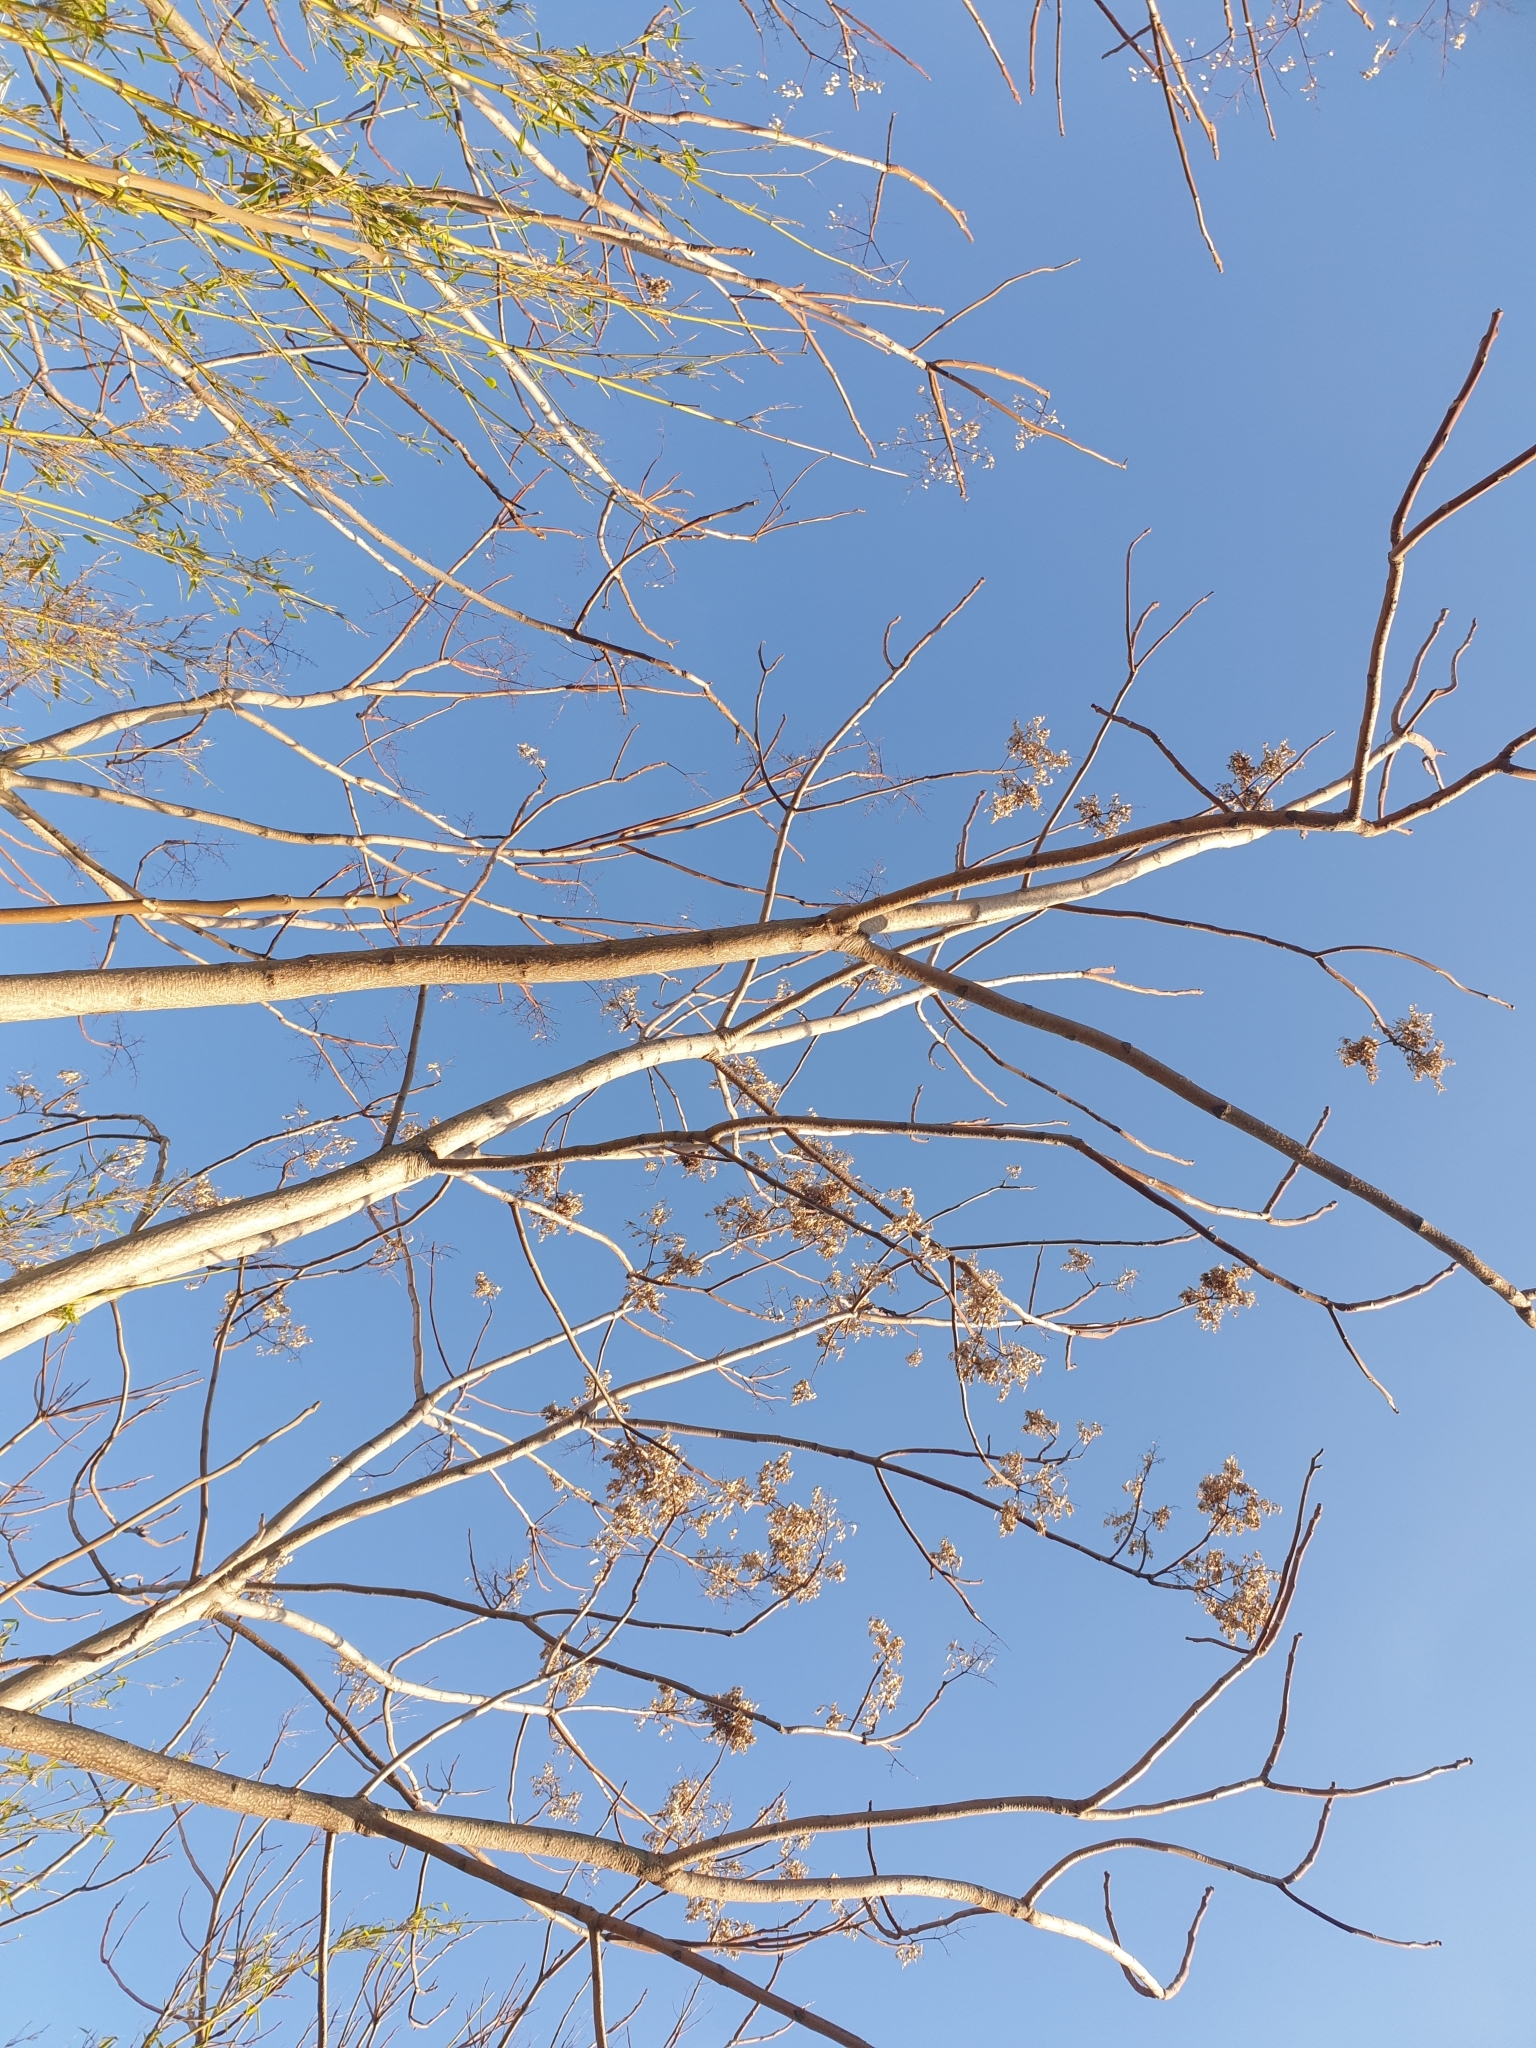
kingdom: Plantae
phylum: Tracheophyta
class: Magnoliopsida
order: Sapindales
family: Simaroubaceae
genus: Ailanthus
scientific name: Ailanthus altissima
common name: Tree-of-heaven
